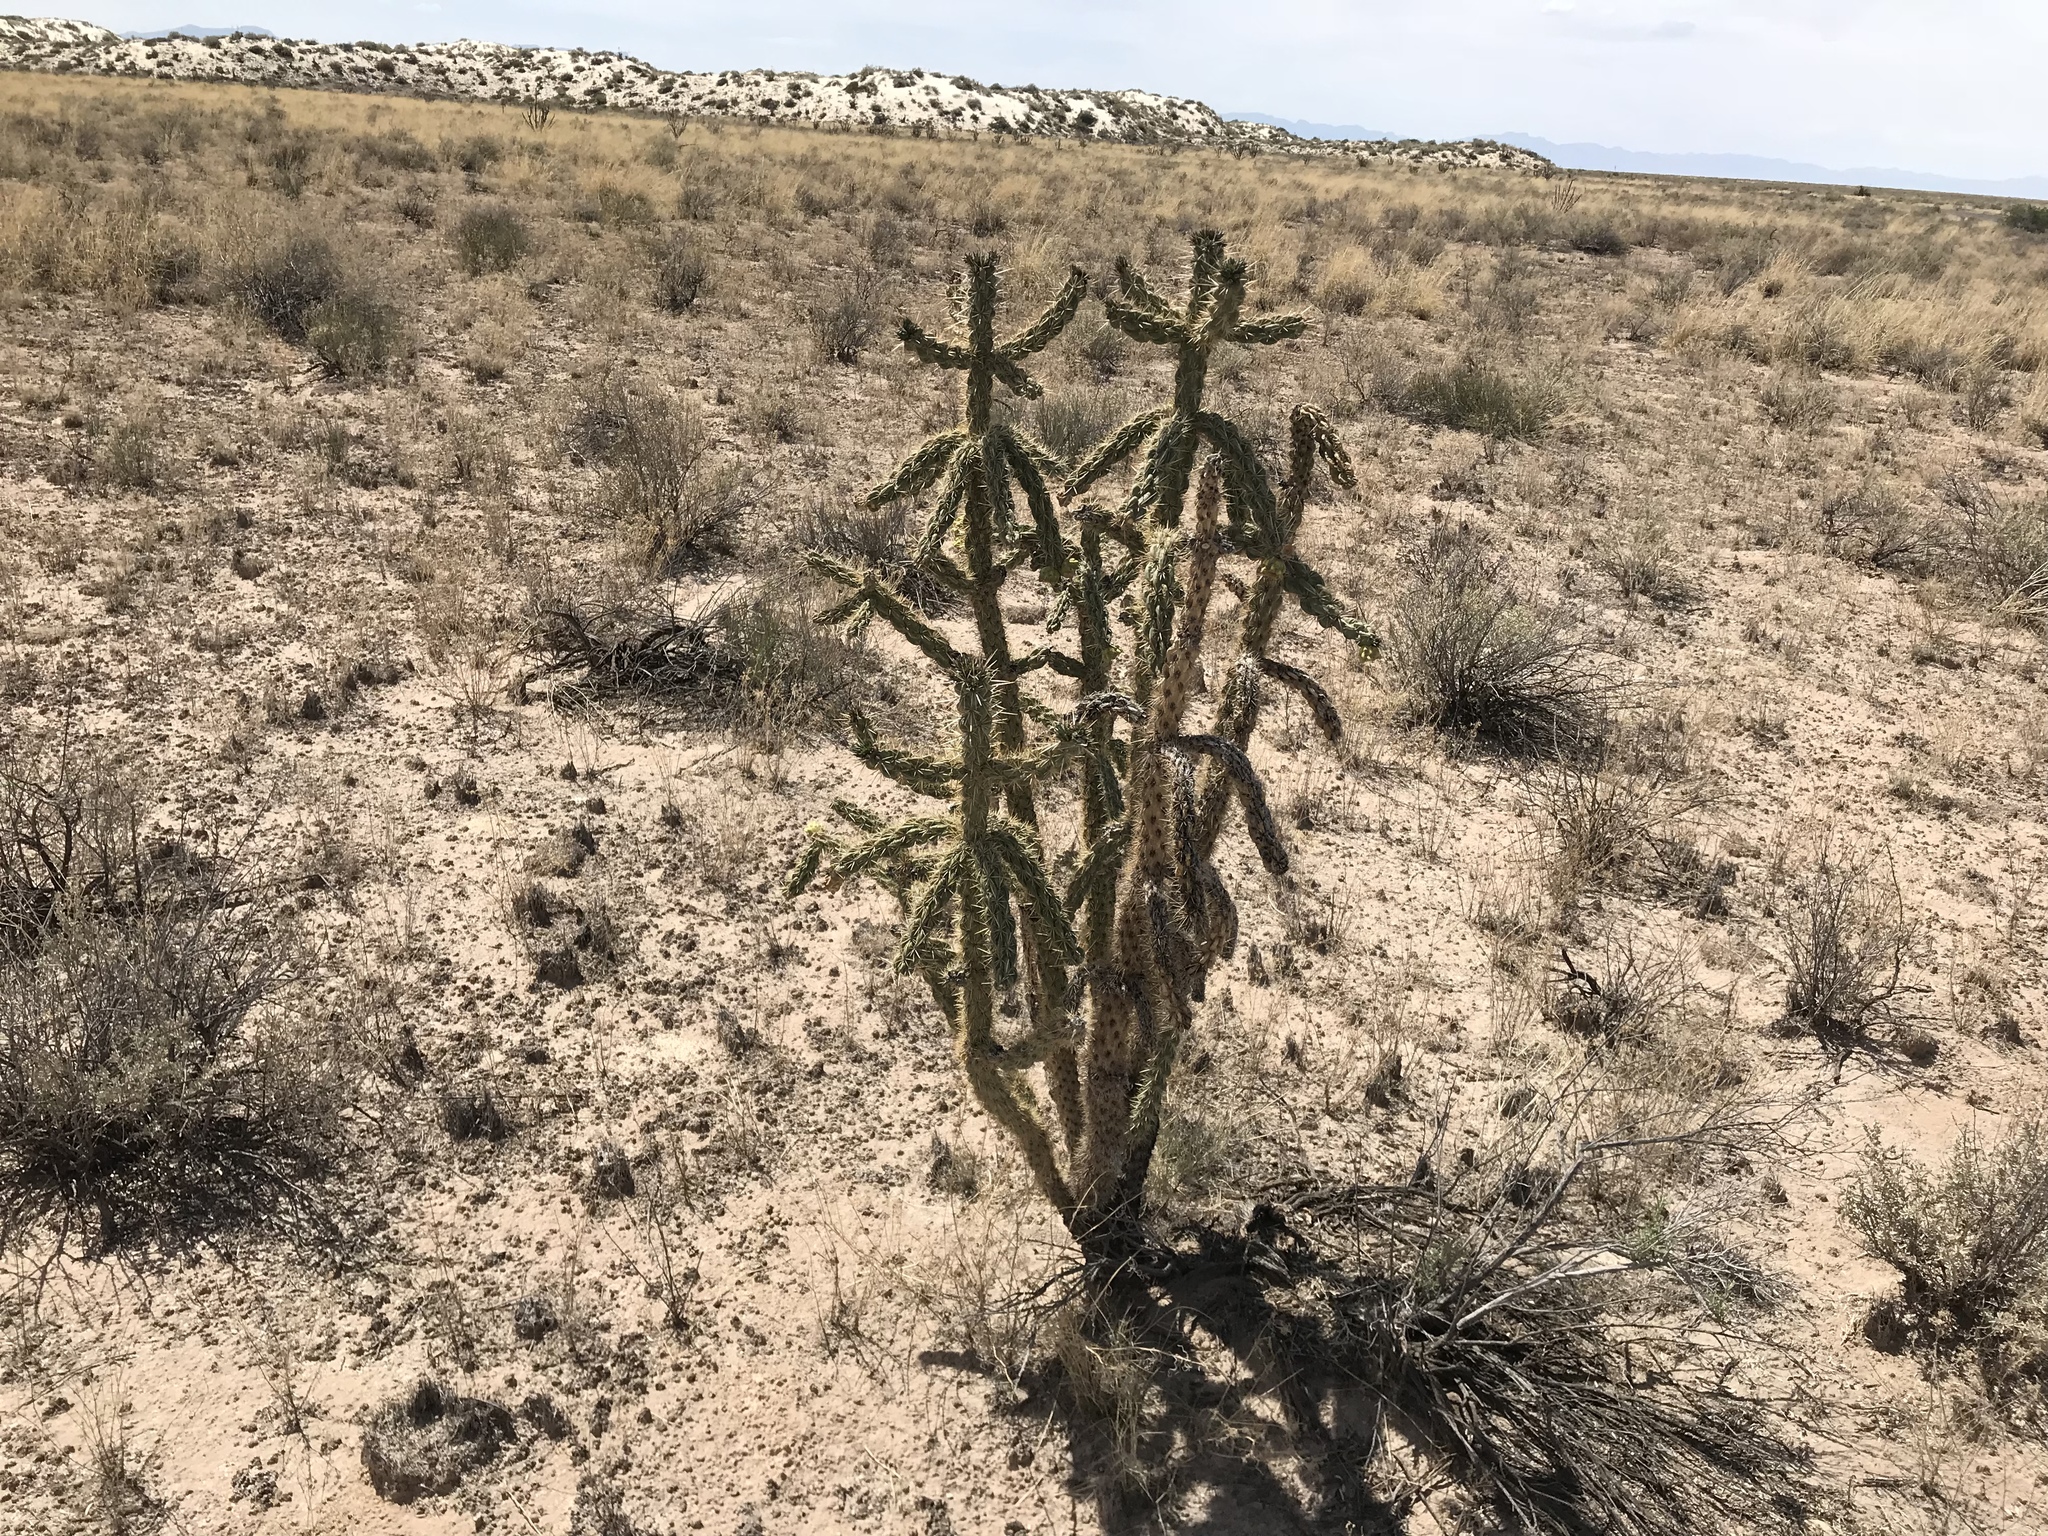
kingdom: Plantae
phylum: Tracheophyta
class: Magnoliopsida
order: Caryophyllales
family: Cactaceae
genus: Cylindropuntia
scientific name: Cylindropuntia imbricata
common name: Candelabrum cactus
